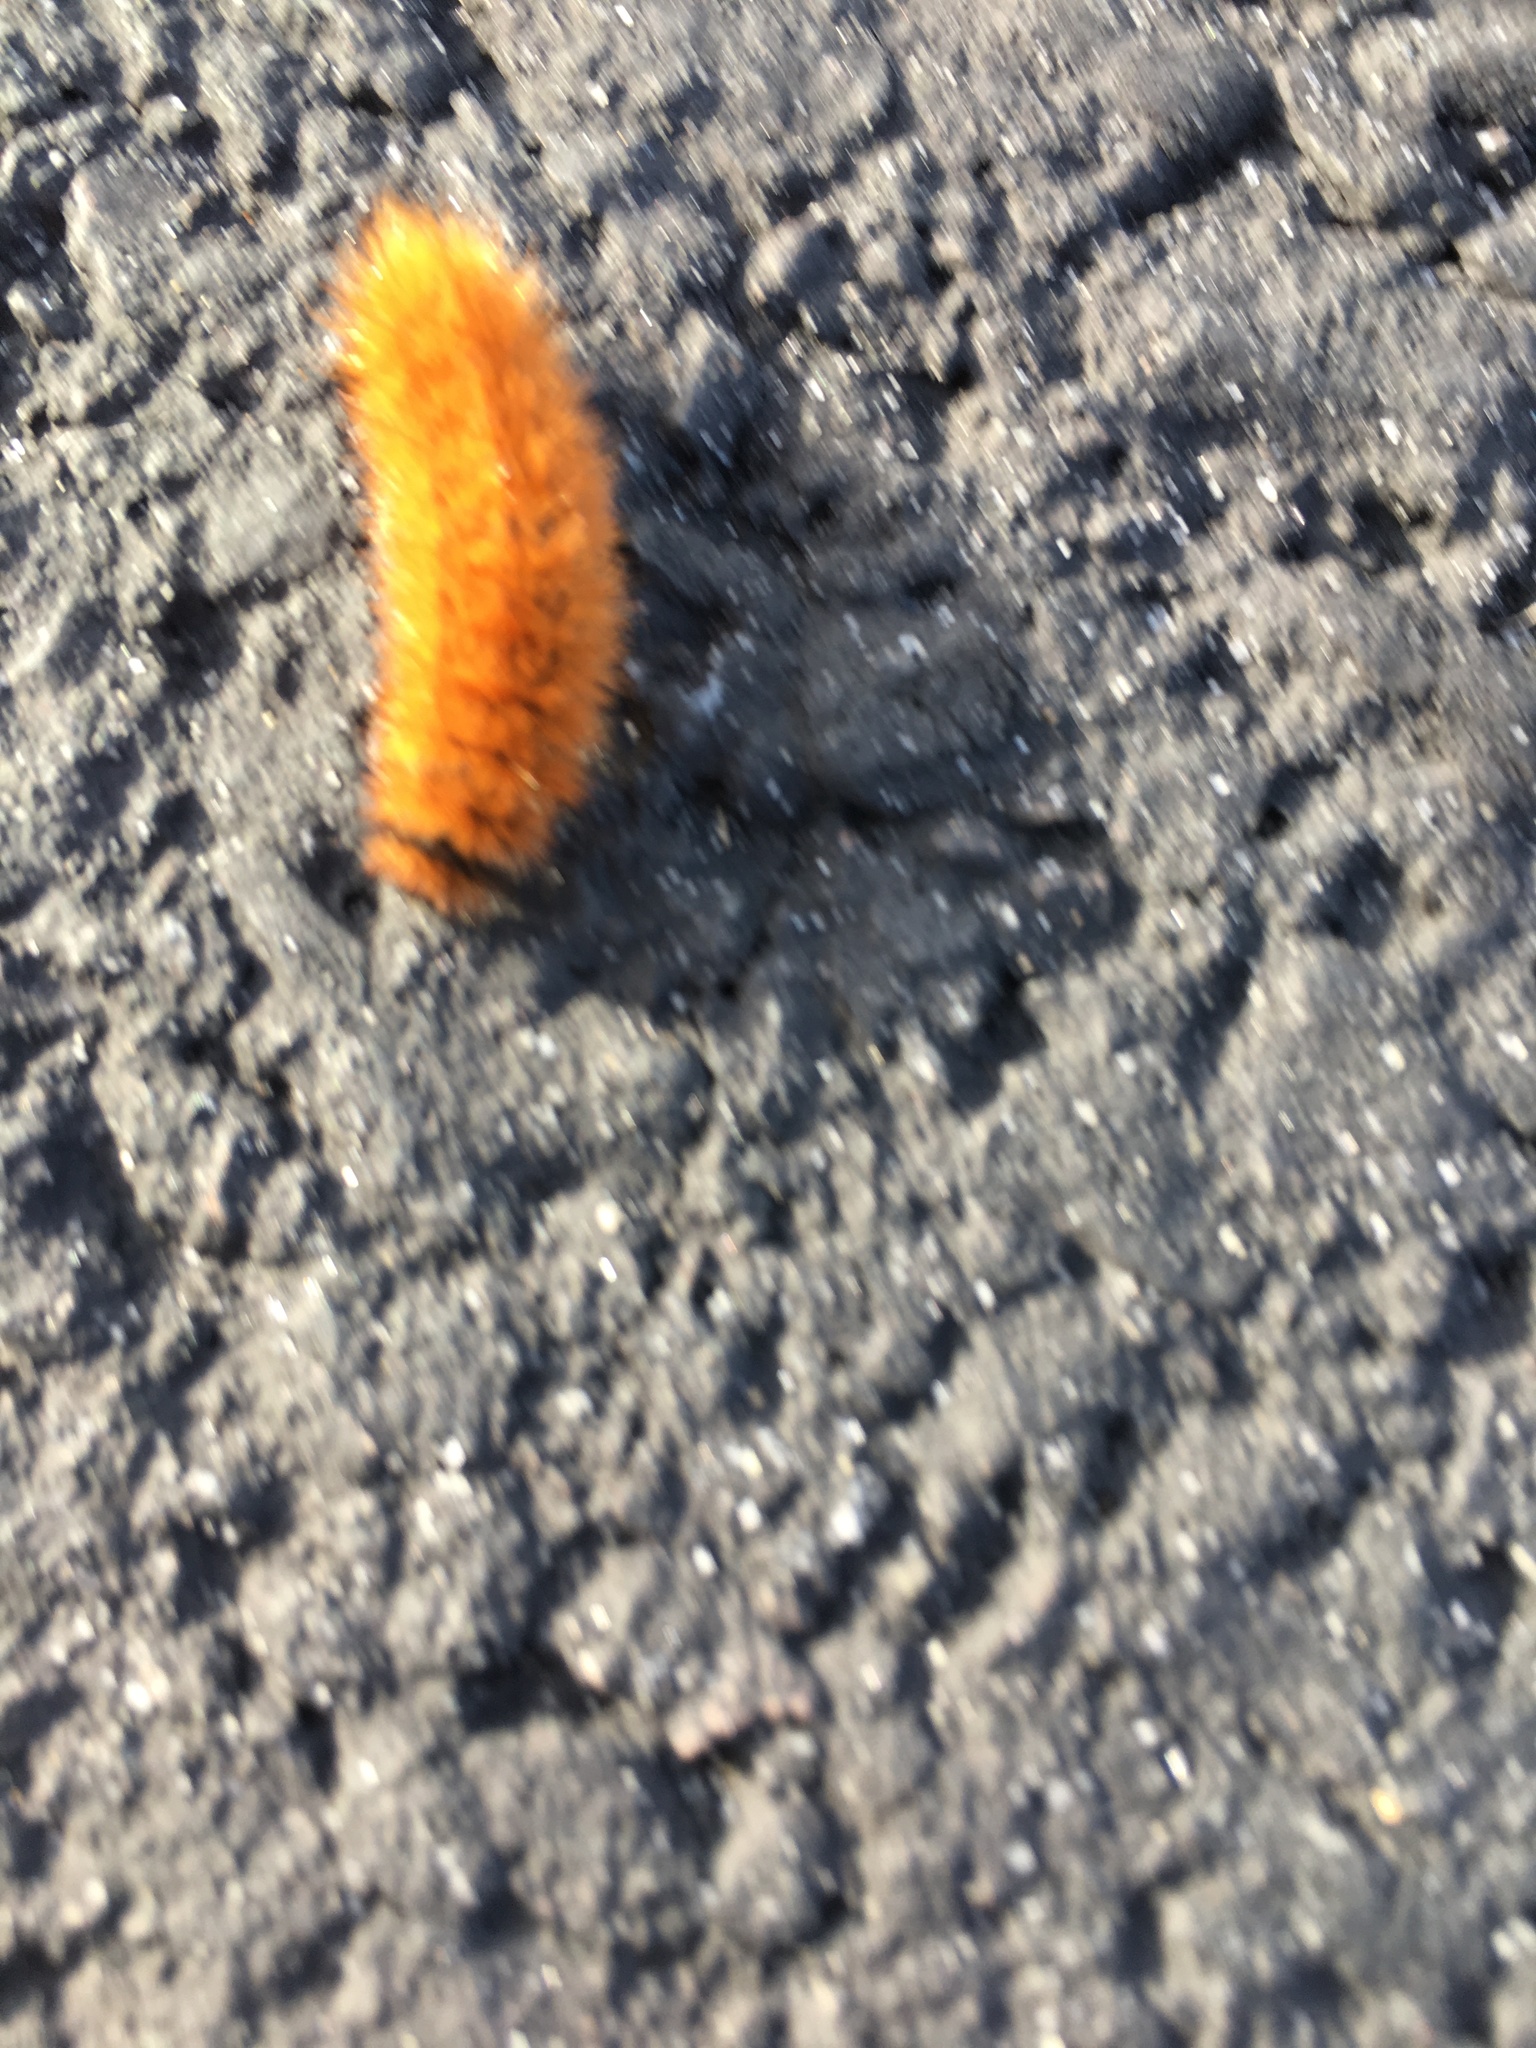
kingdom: Animalia
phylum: Arthropoda
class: Insecta
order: Lepidoptera
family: Erebidae
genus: Pyrrharctia
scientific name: Pyrrharctia isabella
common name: Isabella tiger moth
